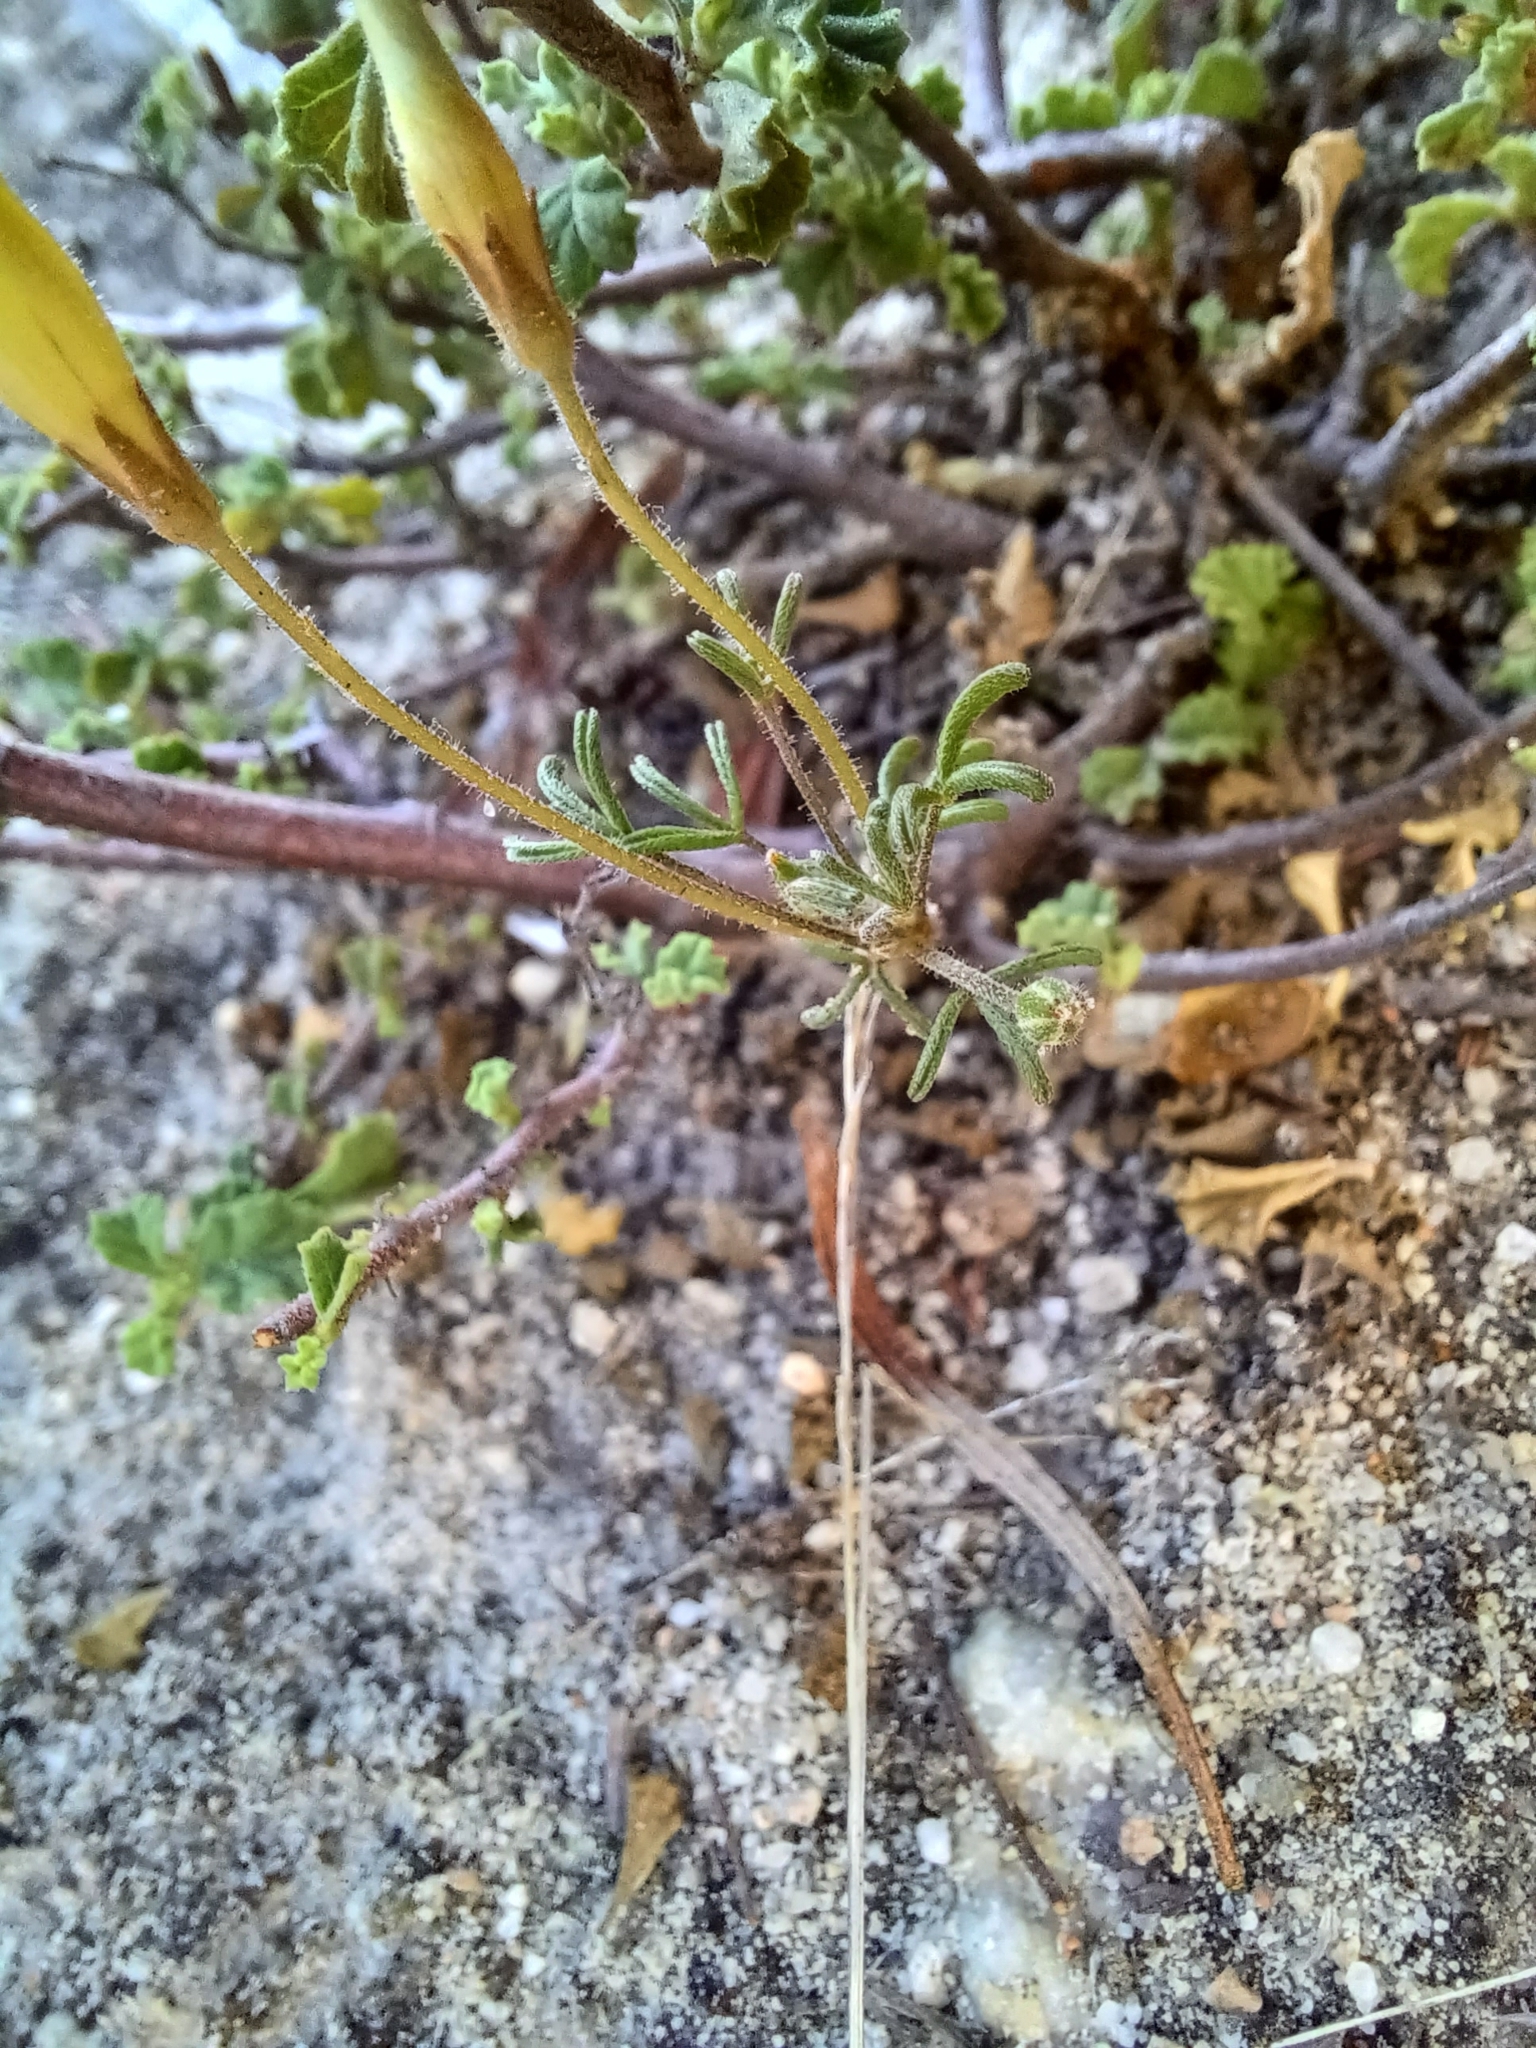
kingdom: Plantae
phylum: Tracheophyta
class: Magnoliopsida
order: Oxalidales
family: Oxalidaceae
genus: Oxalis
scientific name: Oxalis ciliaris
